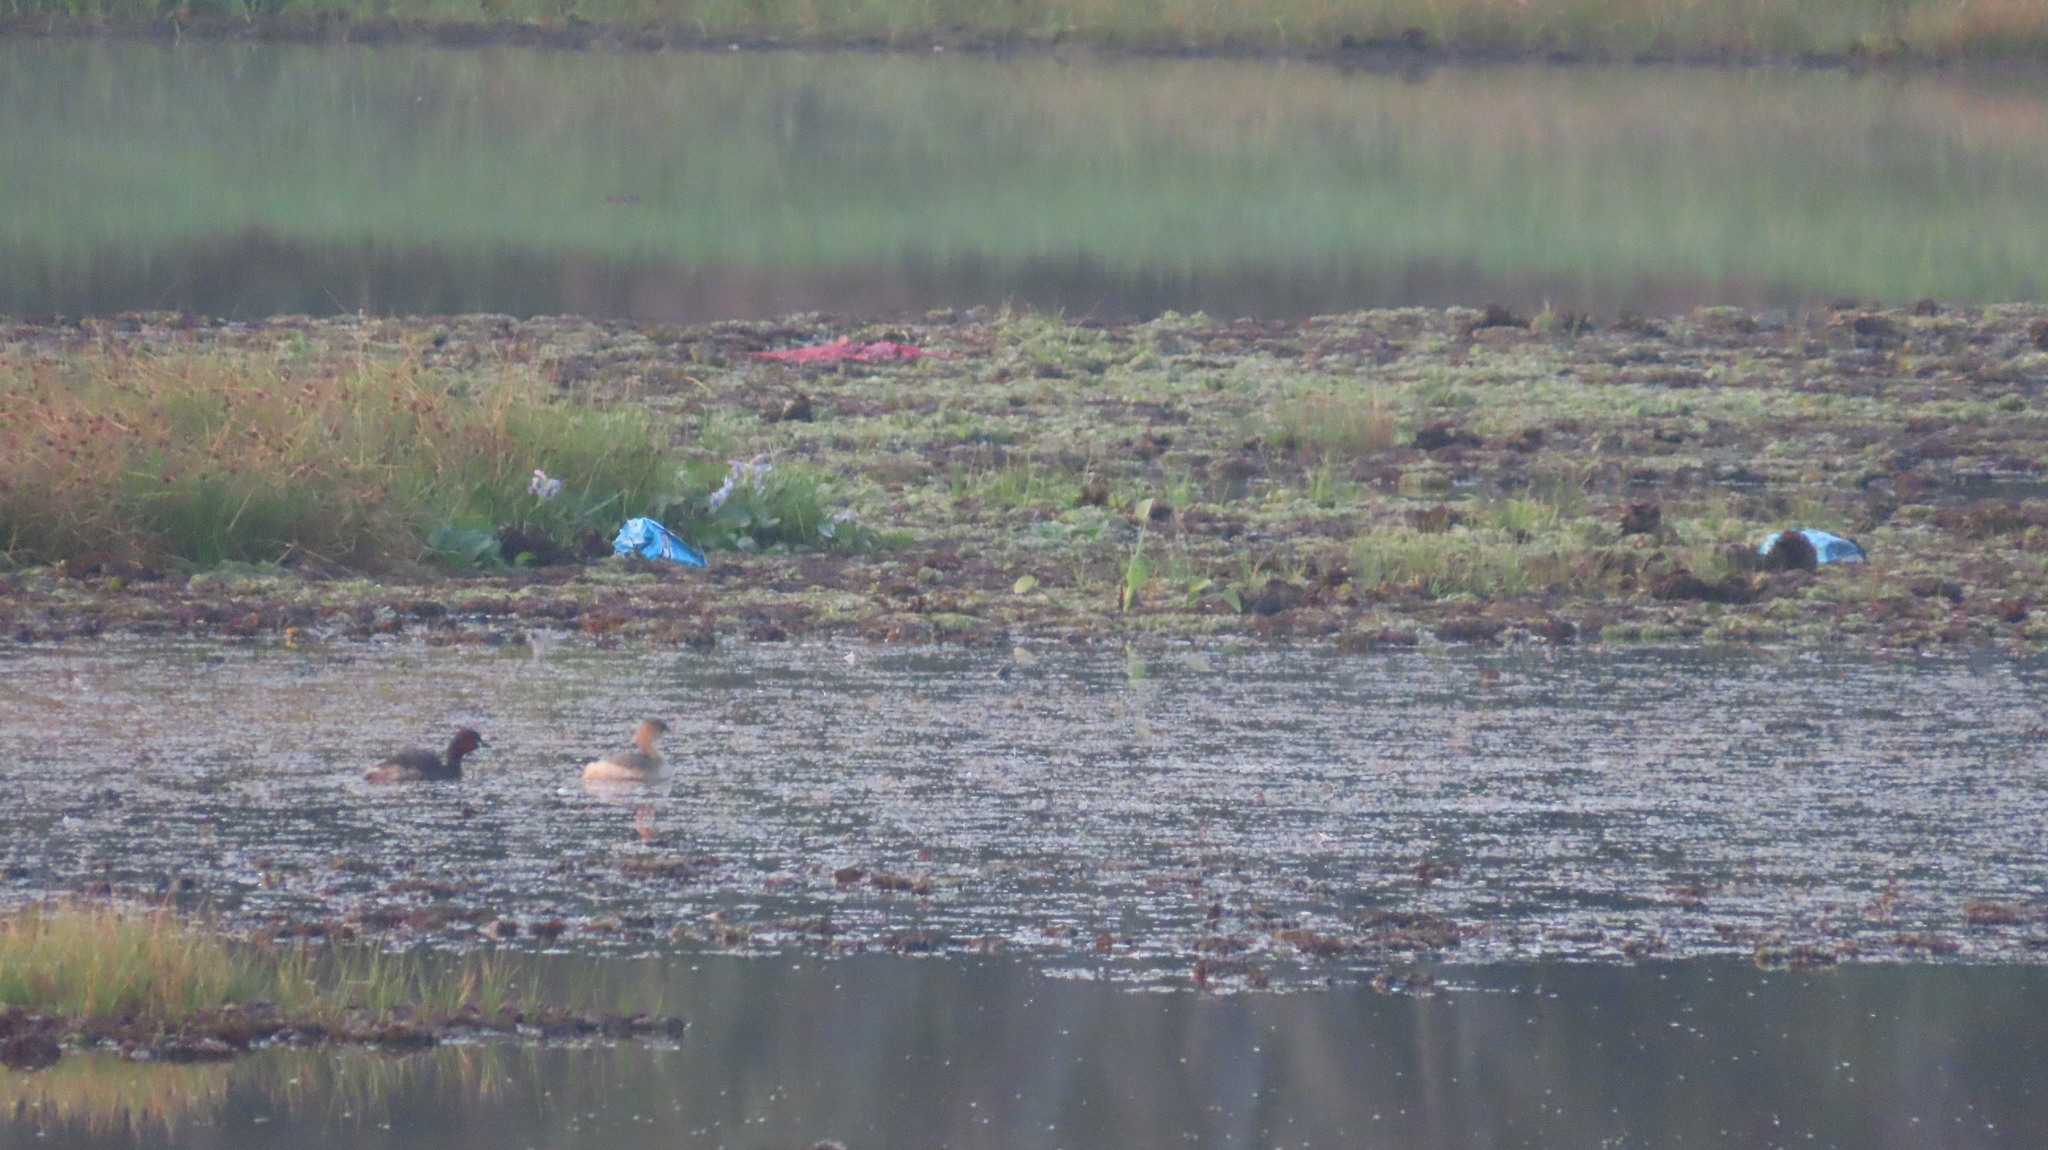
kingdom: Animalia
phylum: Chordata
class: Aves
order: Podicipediformes
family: Podicipedidae
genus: Tachybaptus
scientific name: Tachybaptus ruficollis
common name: Little grebe
